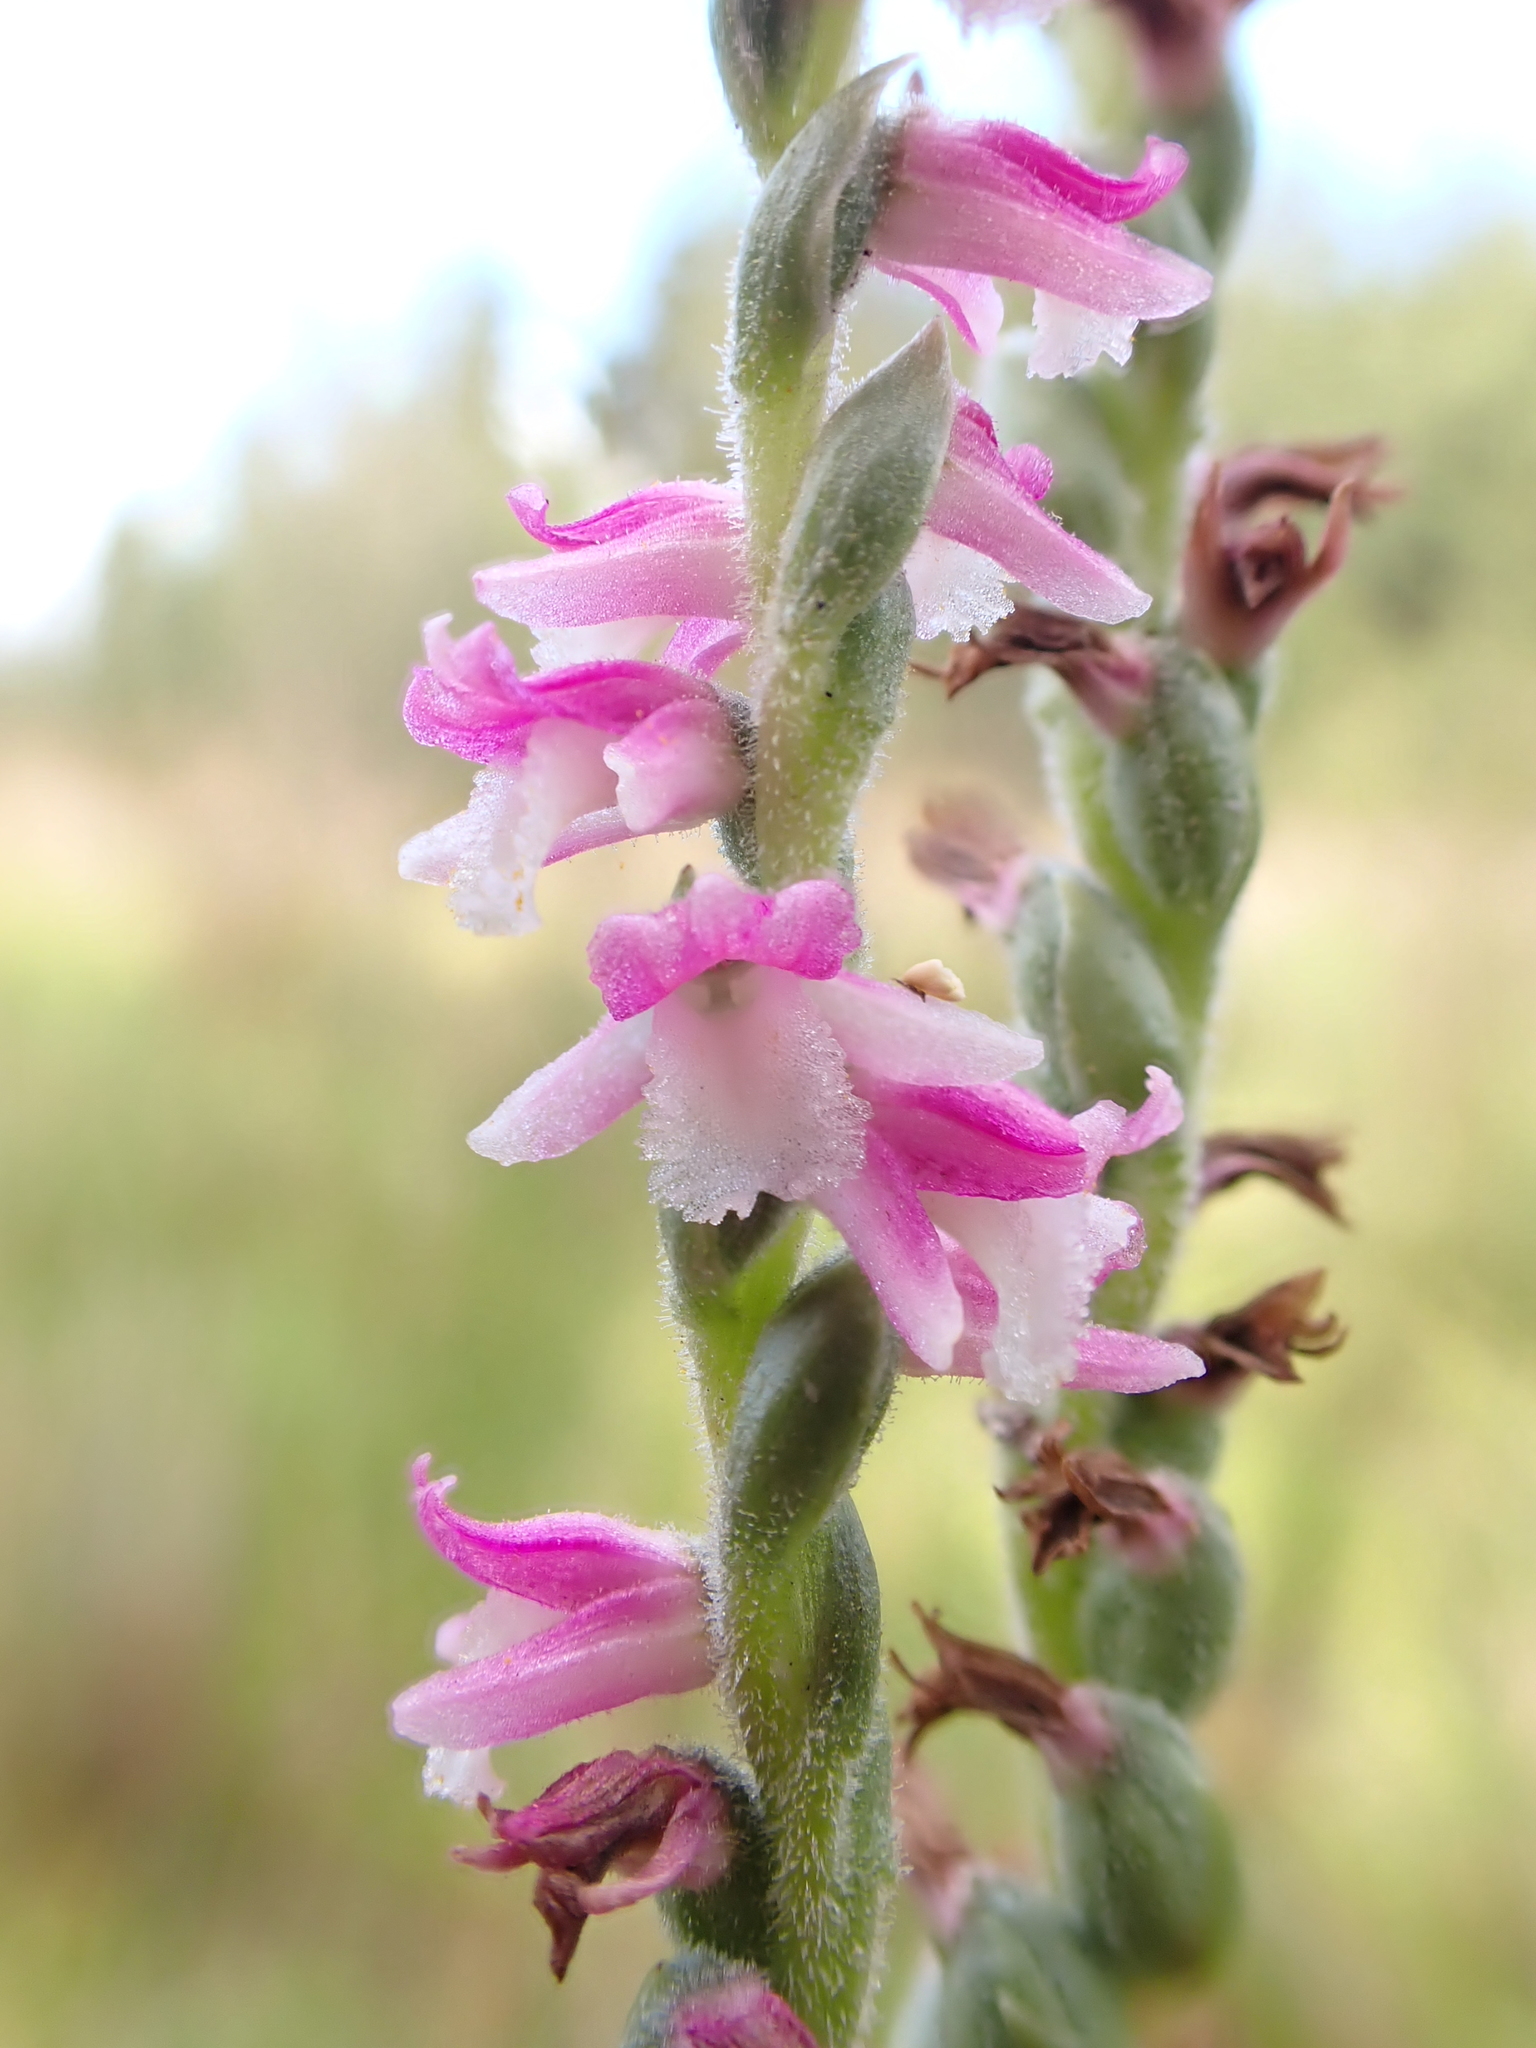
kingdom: Plantae
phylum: Tracheophyta
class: Liliopsida
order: Asparagales
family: Orchidaceae
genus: Spiranthes
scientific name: Spiranthes australis
